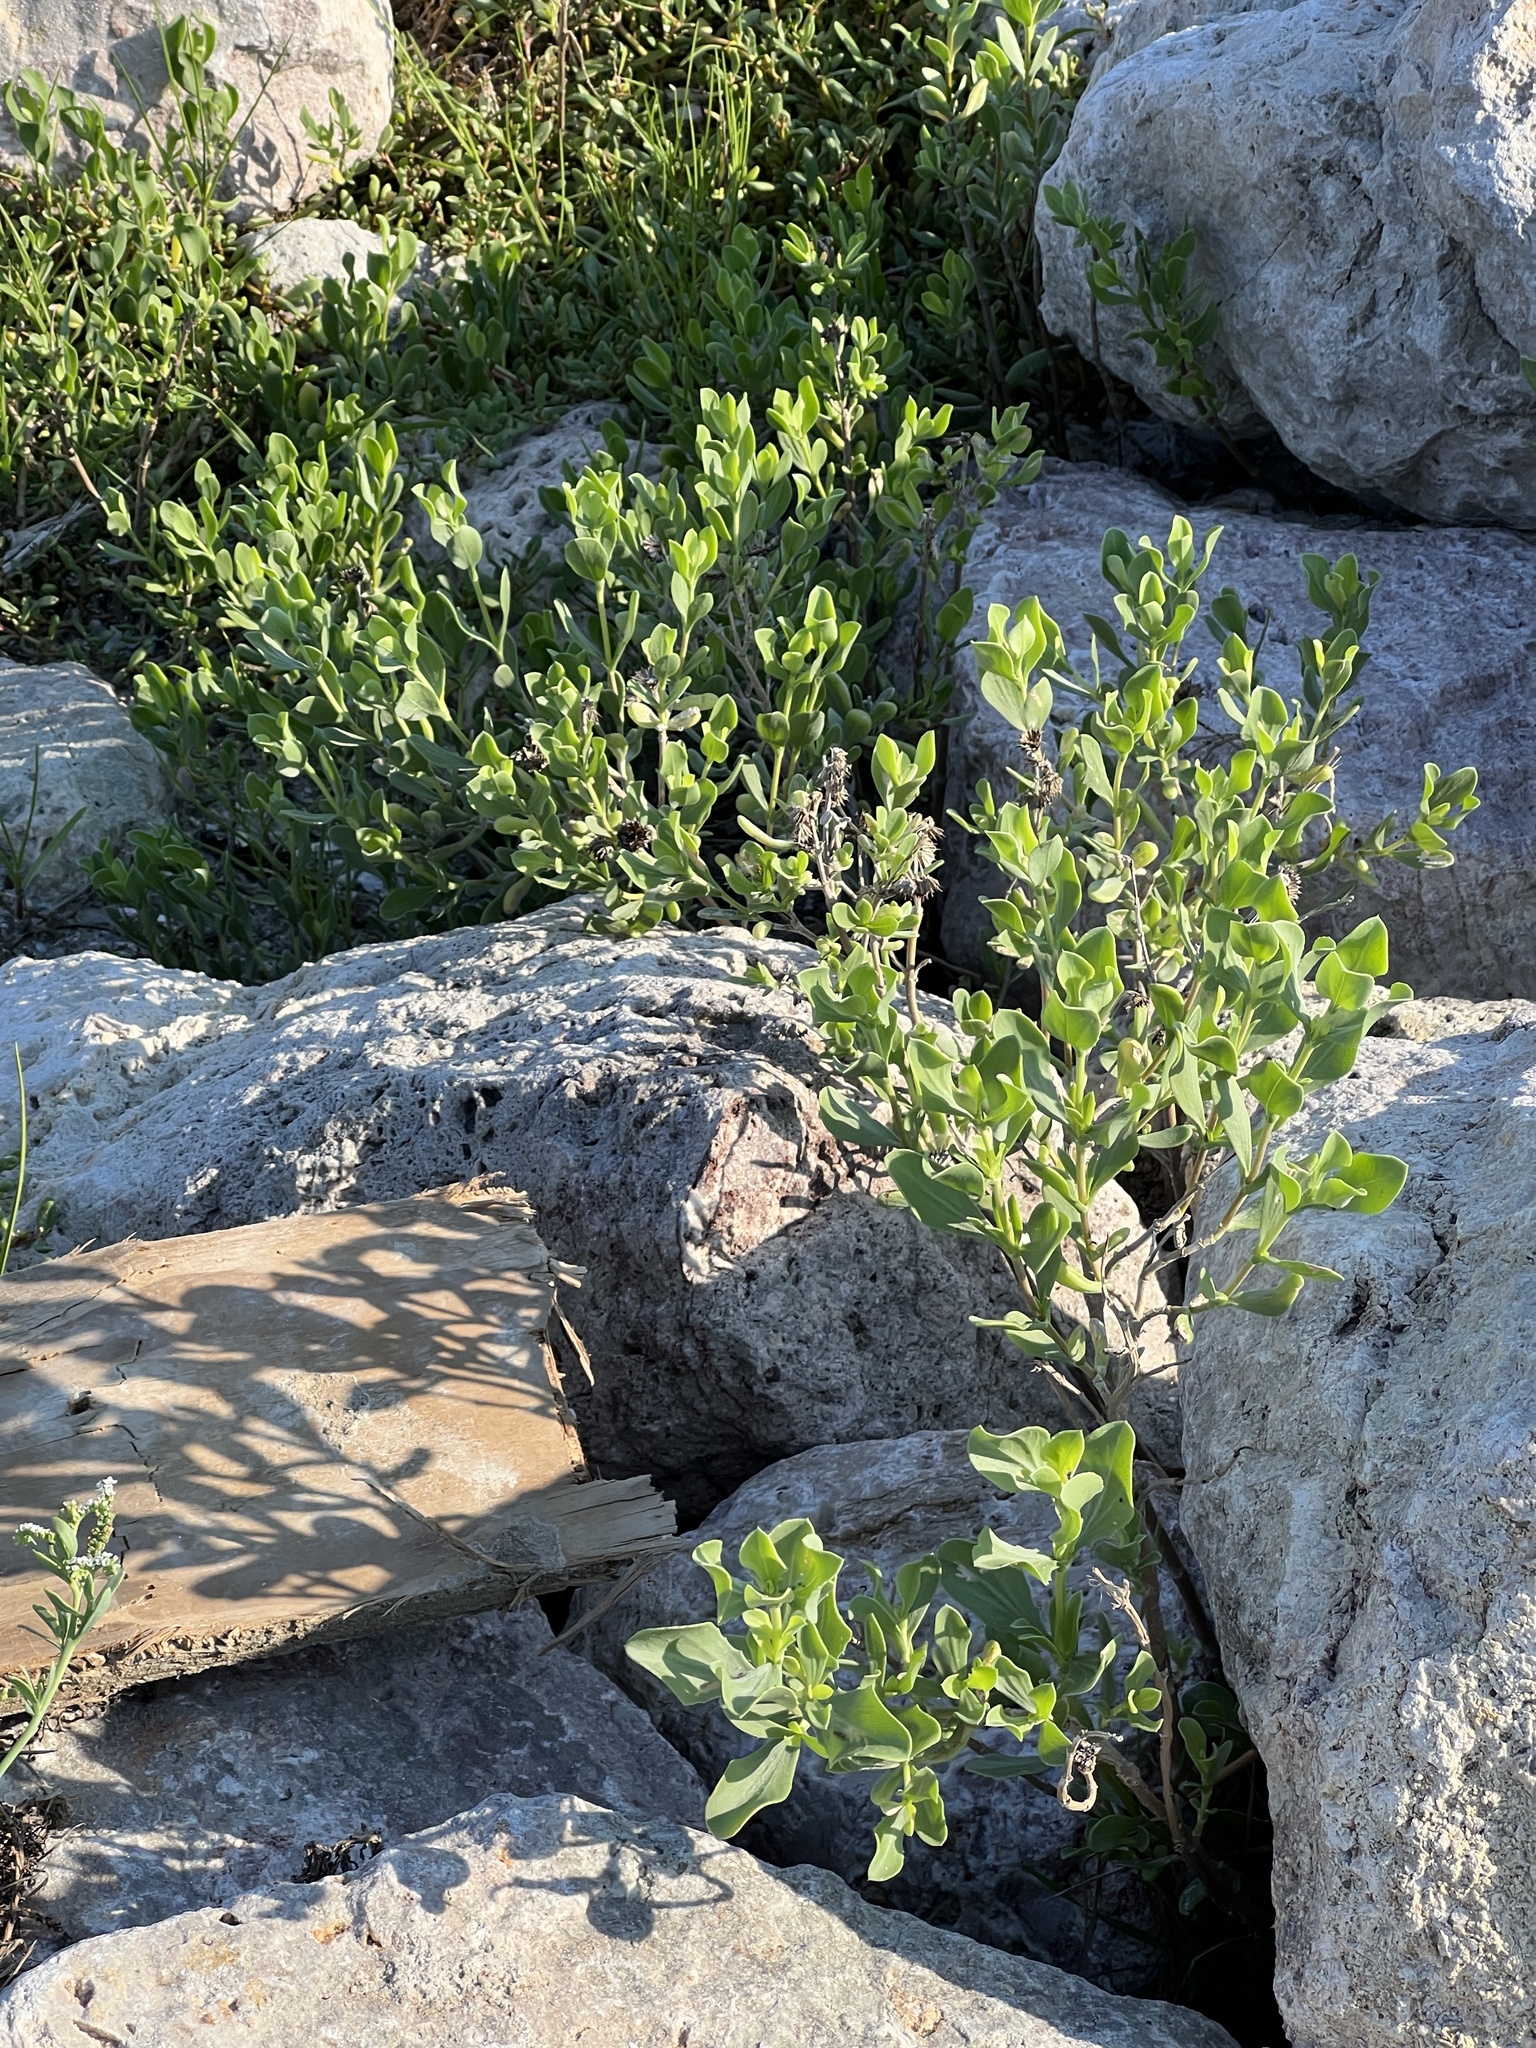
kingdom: Plantae
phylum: Tracheophyta
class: Magnoliopsida
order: Asterales
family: Asteraceae
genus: Borrichia
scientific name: Borrichia frutescens
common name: Sea oxeye
